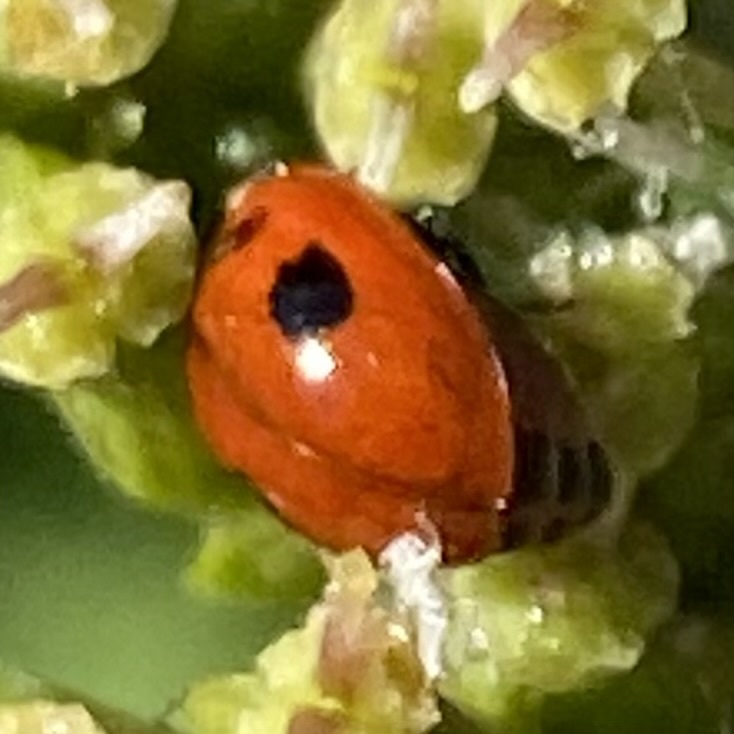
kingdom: Animalia
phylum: Arthropoda
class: Insecta
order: Coleoptera
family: Coccinellidae
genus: Adalia
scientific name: Adalia bipunctata
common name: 2-spot ladybird
